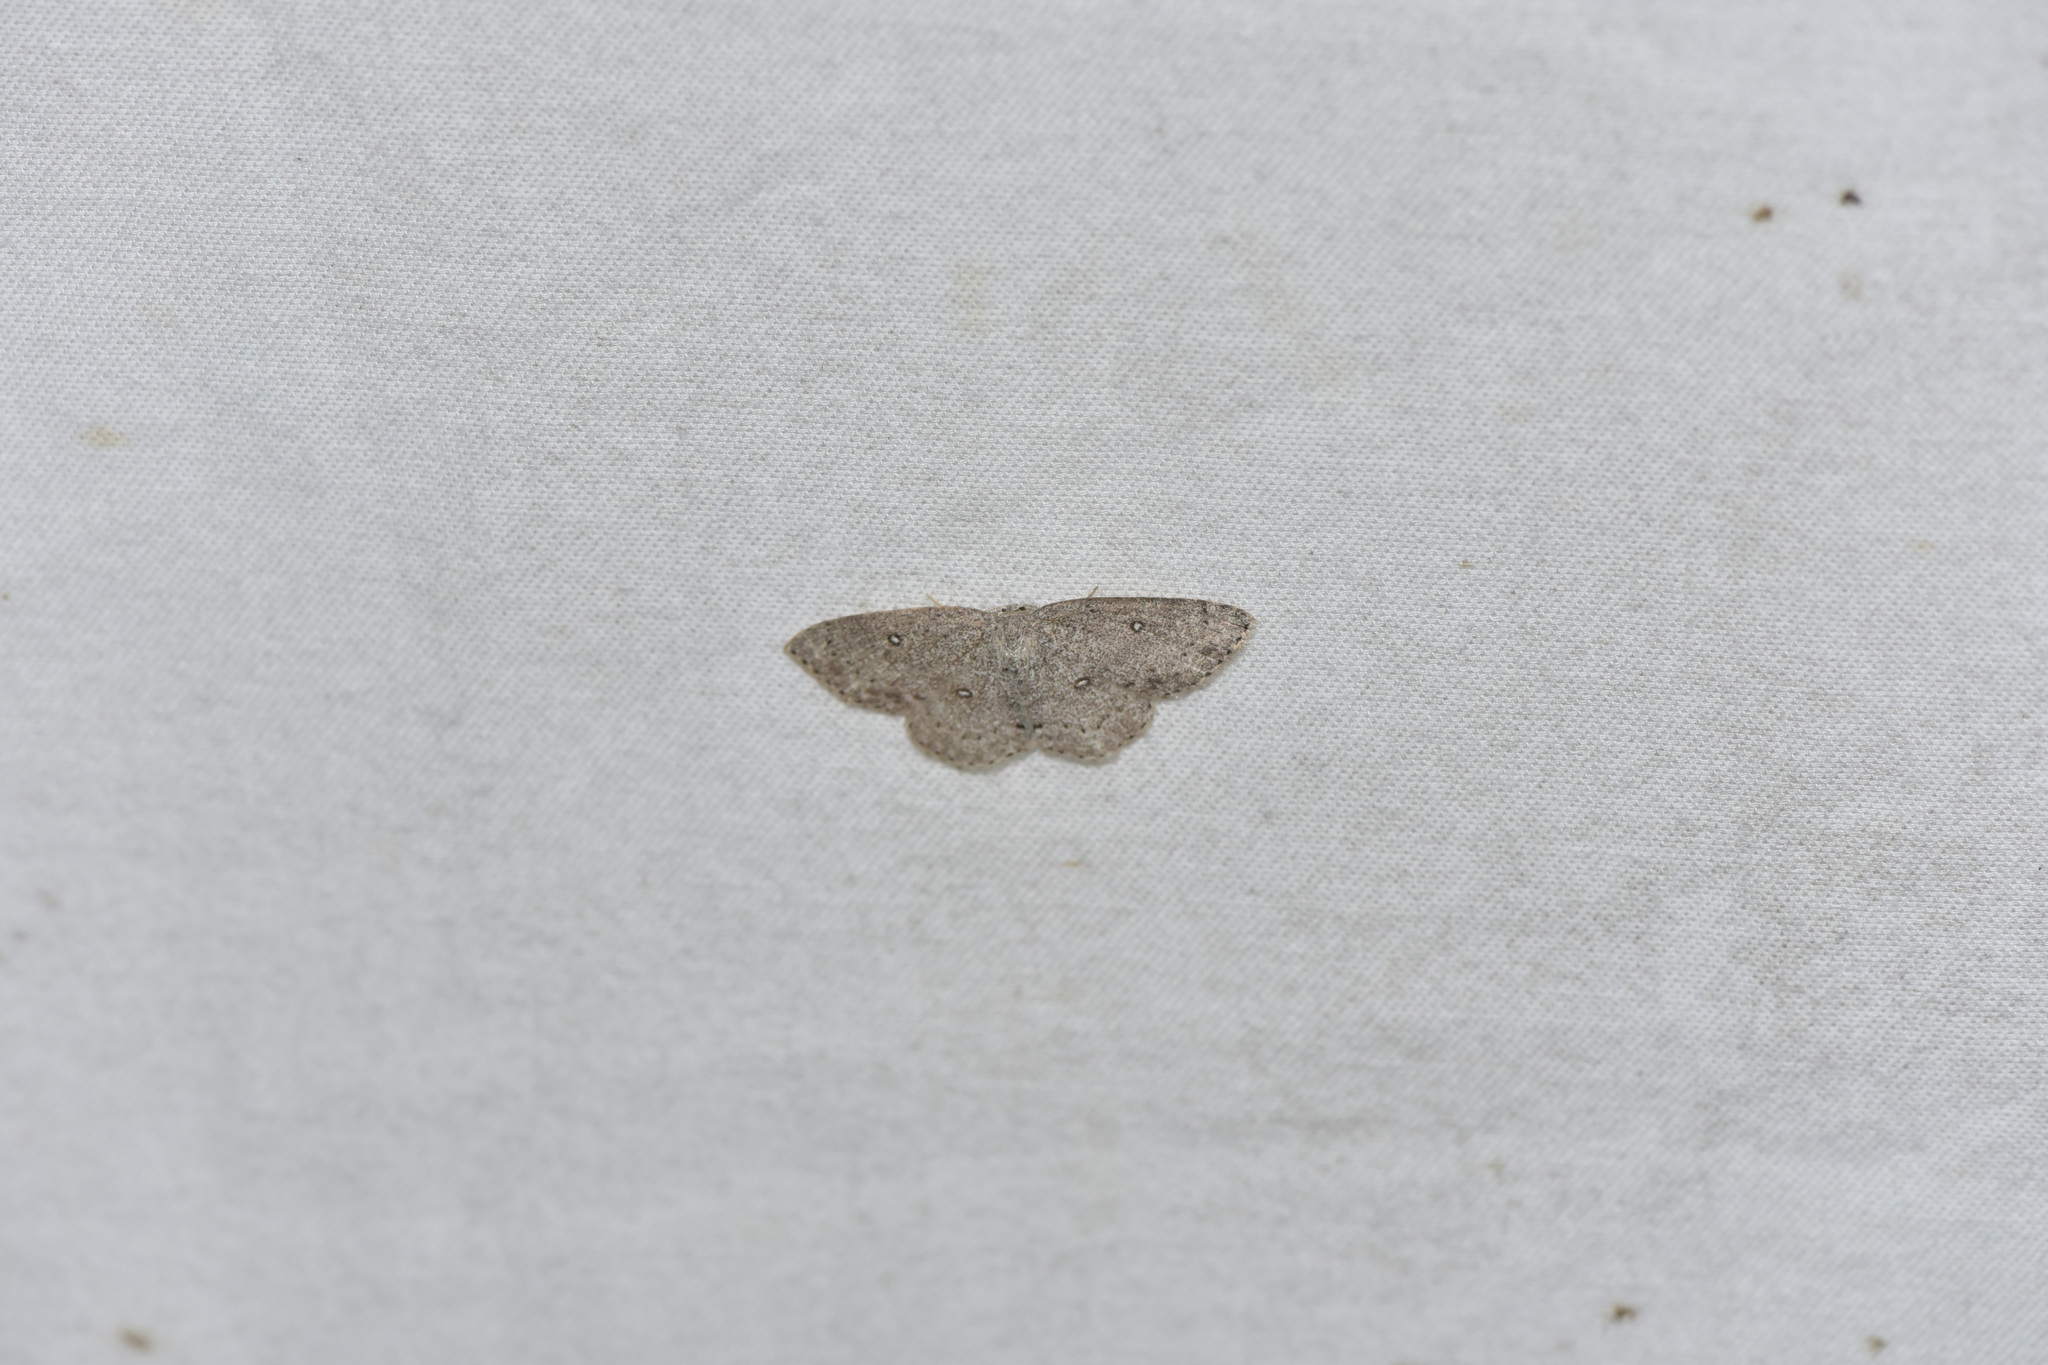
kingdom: Animalia
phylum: Arthropoda
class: Insecta
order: Lepidoptera
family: Geometridae
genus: Cyclophora
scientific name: Cyclophora pendulinaria
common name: Sweet fern geometer
